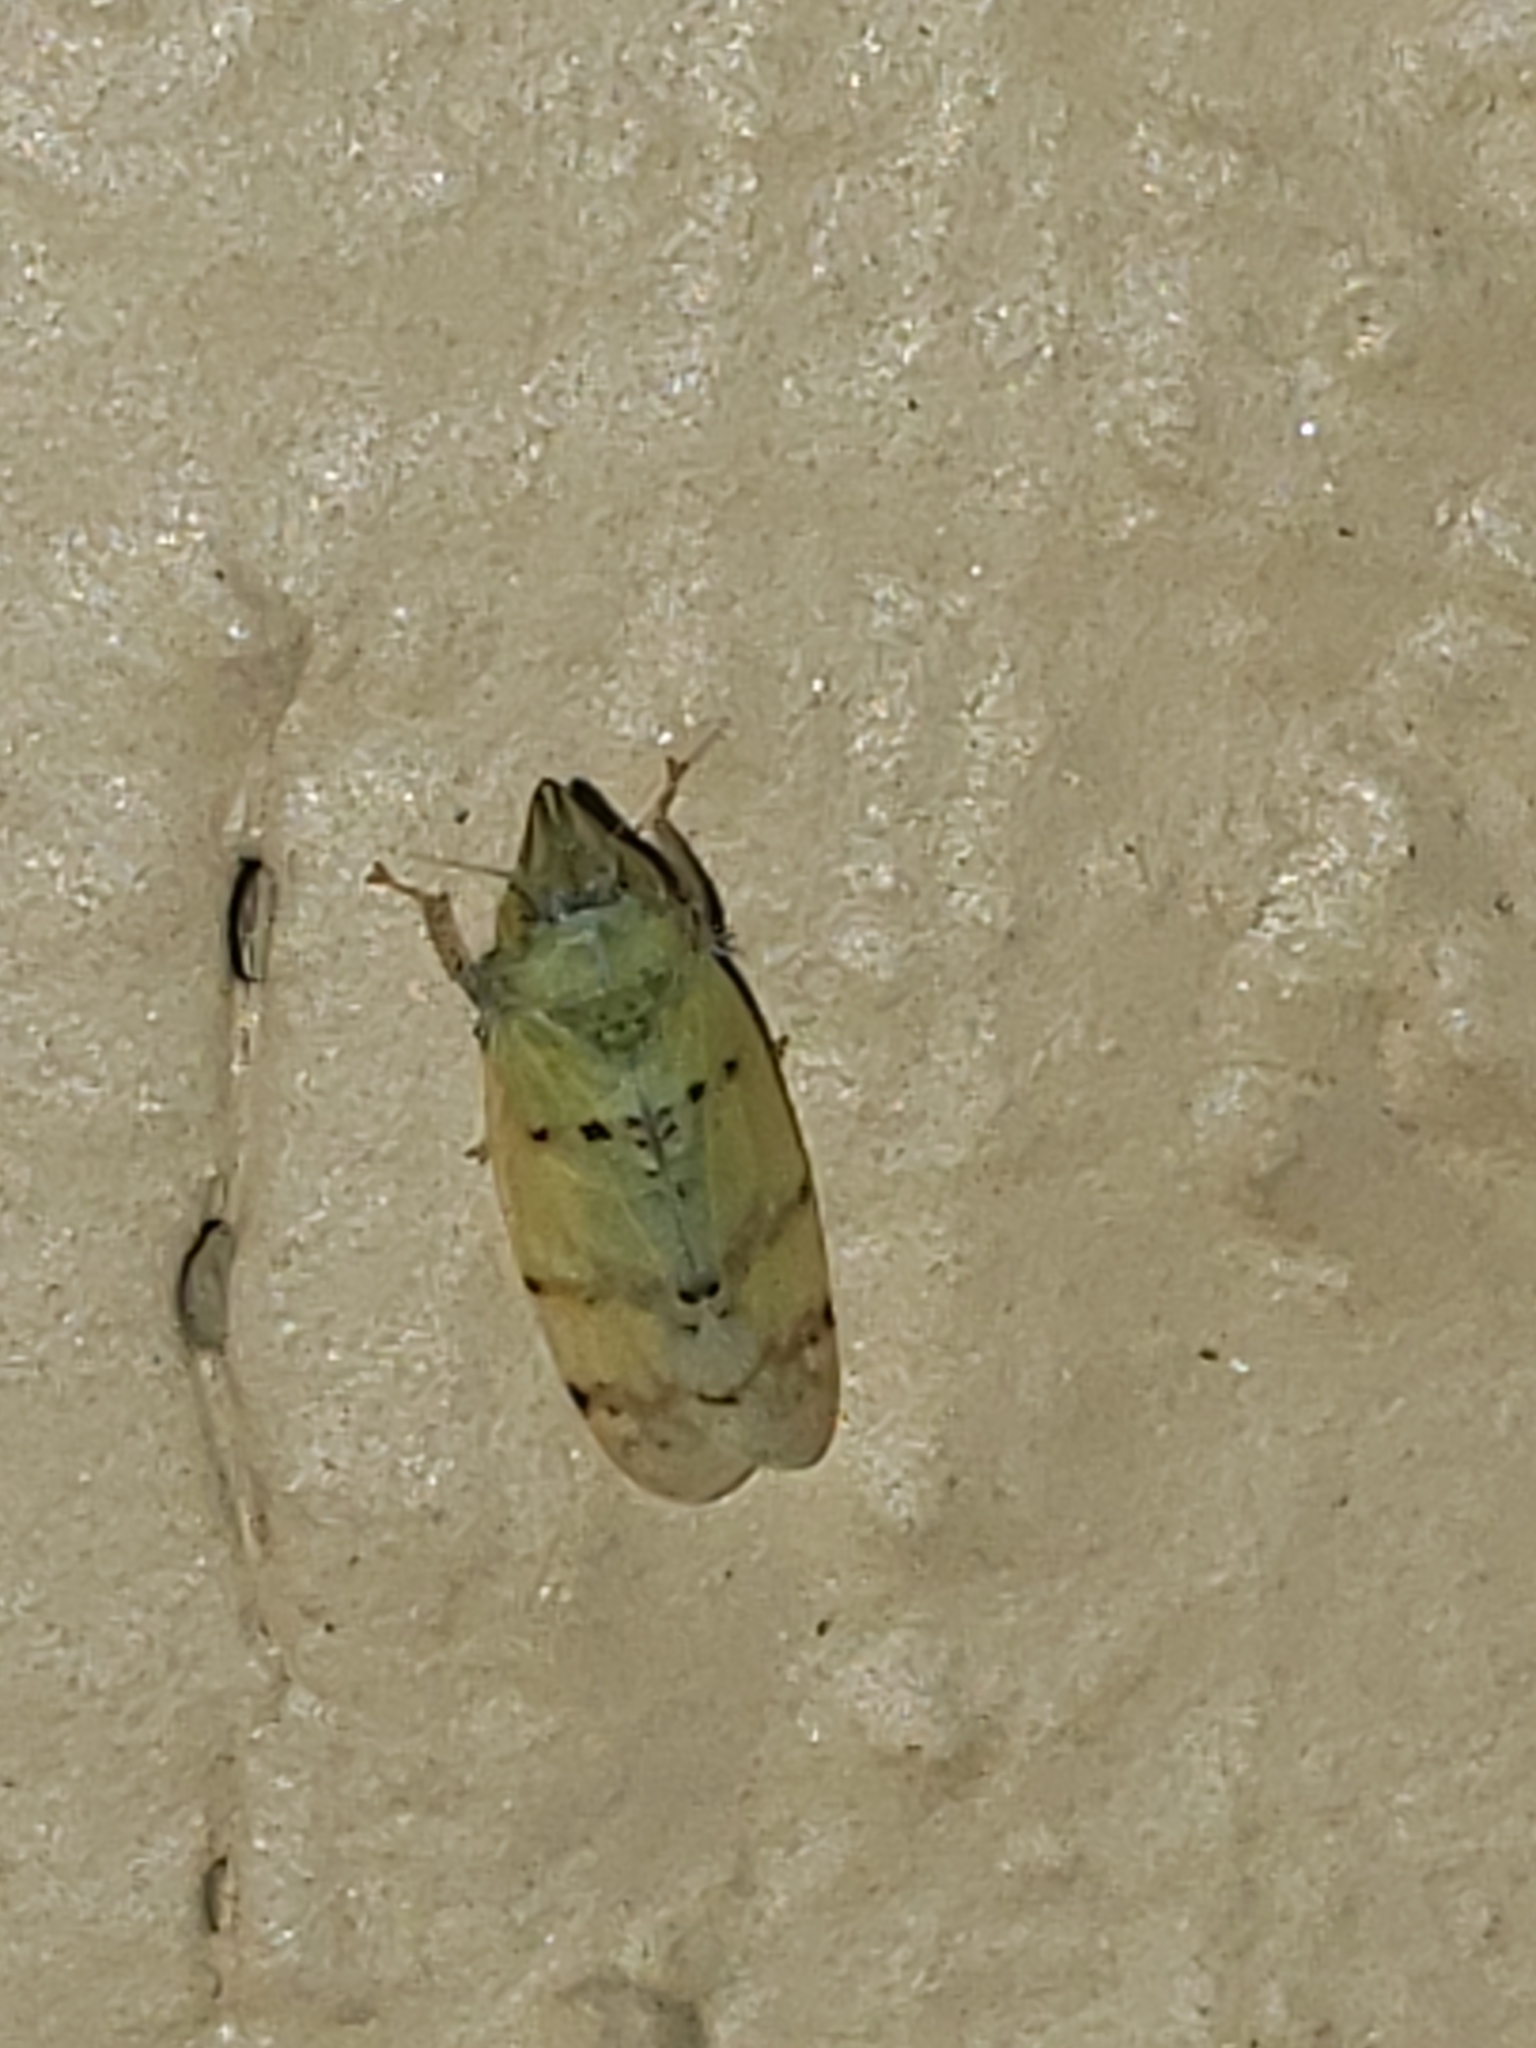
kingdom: Animalia
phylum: Arthropoda
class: Insecta
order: Hemiptera
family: Cicadellidae
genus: Japananus
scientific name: Japananus hyalinus
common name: The japanese maple leafhopper
